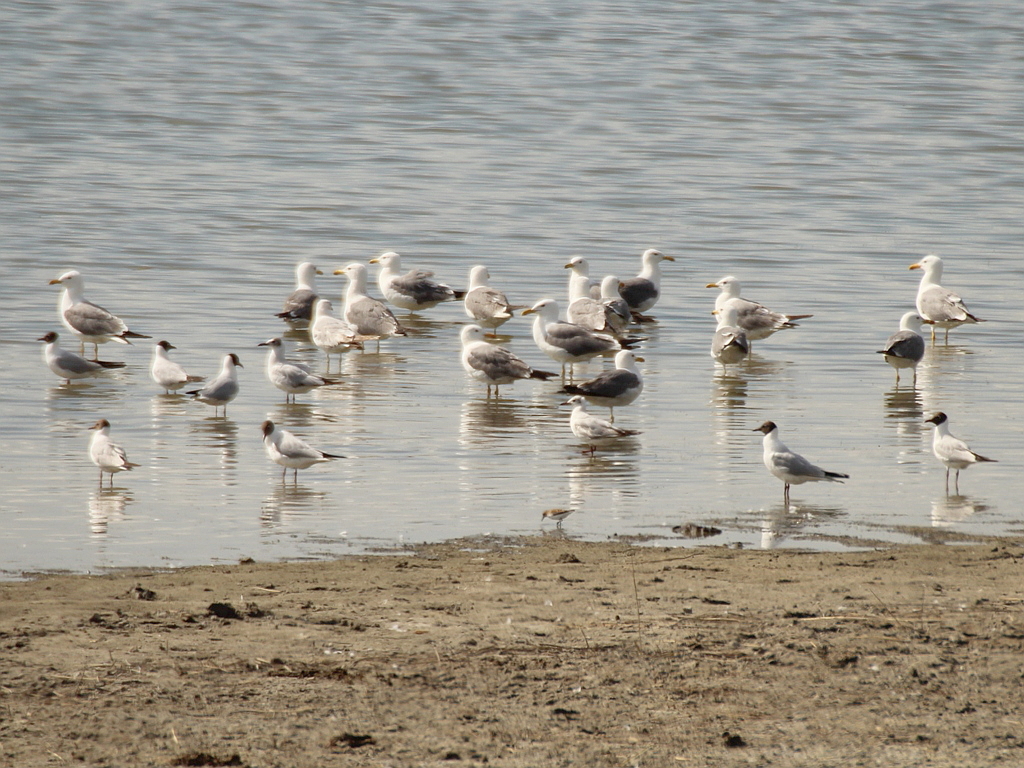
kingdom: Animalia
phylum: Chordata
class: Aves
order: Charadriiformes
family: Laridae
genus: Larus
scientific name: Larus fuscus
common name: Lesser black-backed gull
